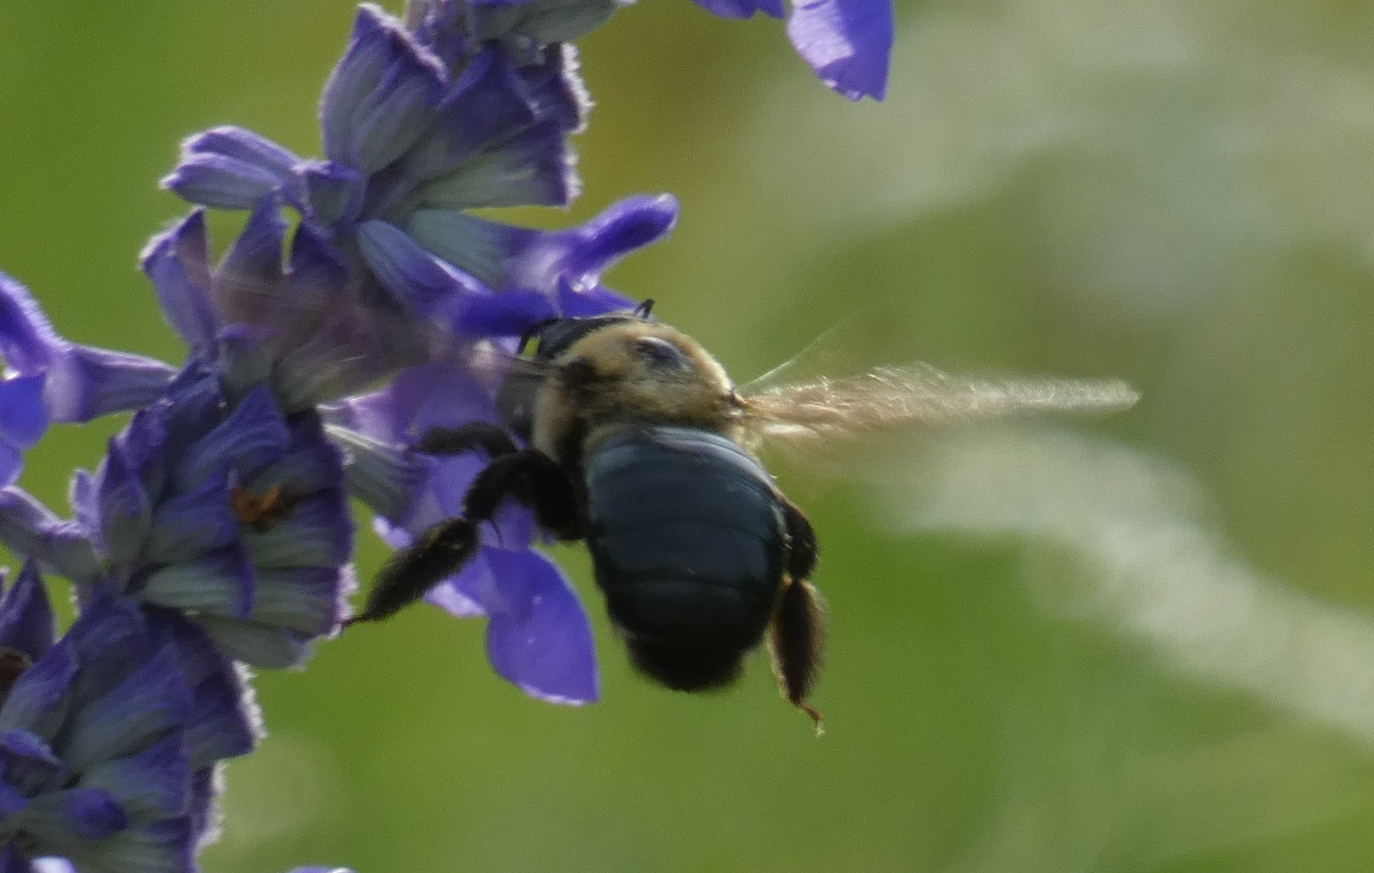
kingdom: Animalia
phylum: Arthropoda
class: Insecta
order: Hymenoptera
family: Apidae
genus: Xylocopa
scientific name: Xylocopa virginica
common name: Carpenter bee
